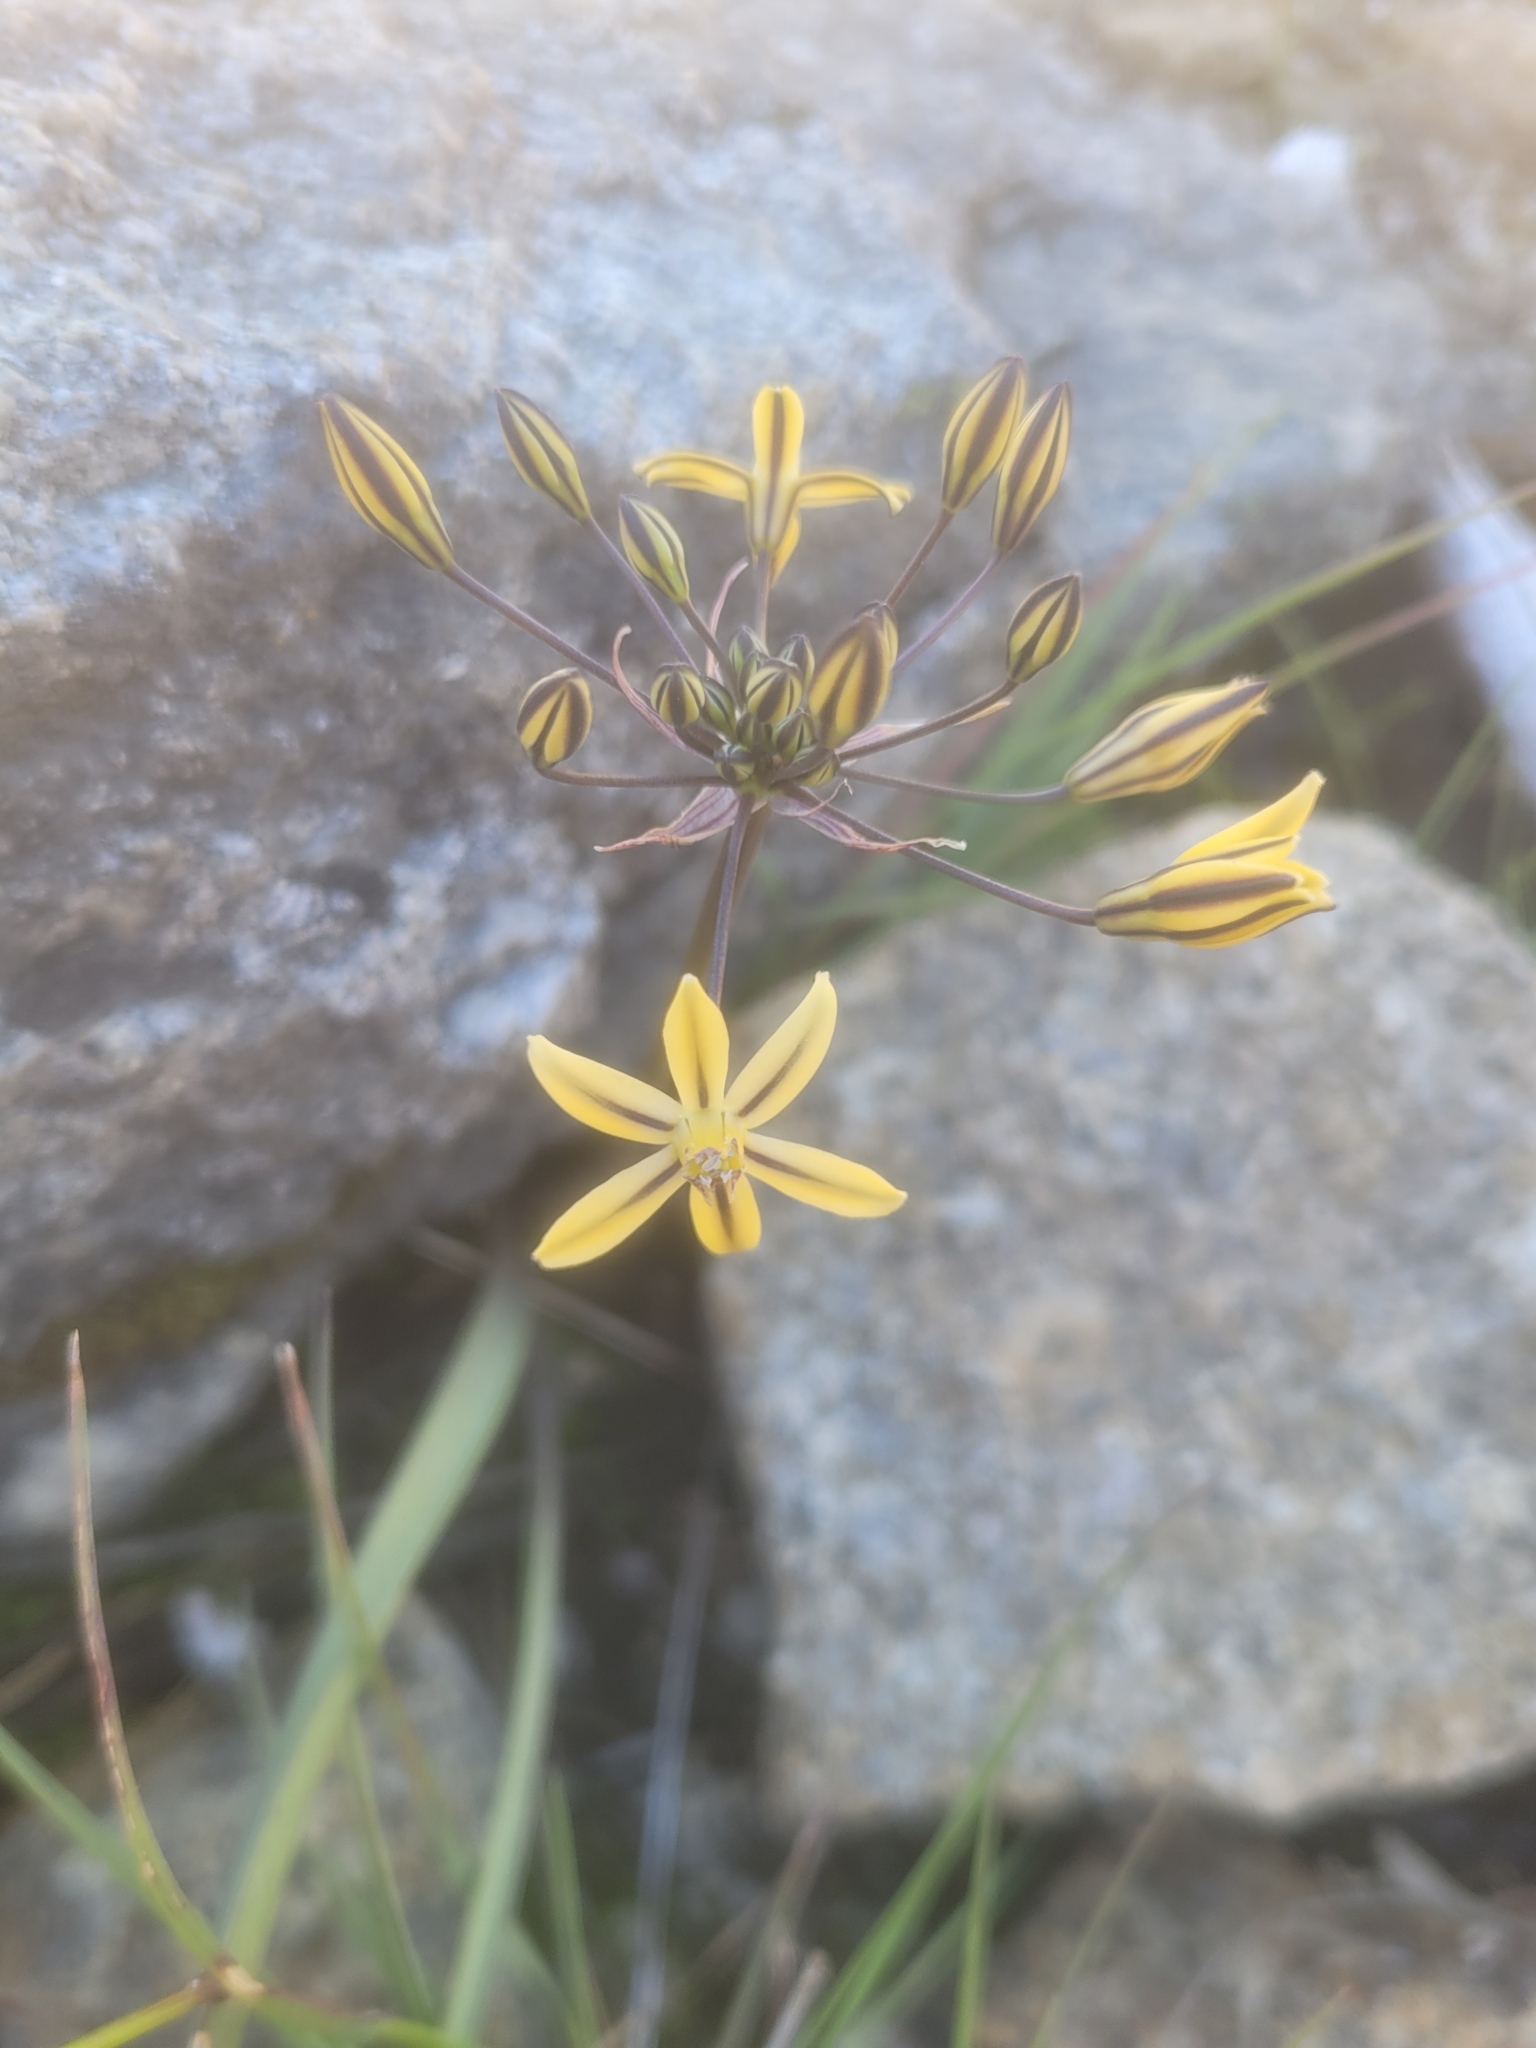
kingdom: Plantae
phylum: Tracheophyta
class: Liliopsida
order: Asparagales
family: Asparagaceae
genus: Triteleia
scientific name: Triteleia ixioides
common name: Yellow-brodiaea
